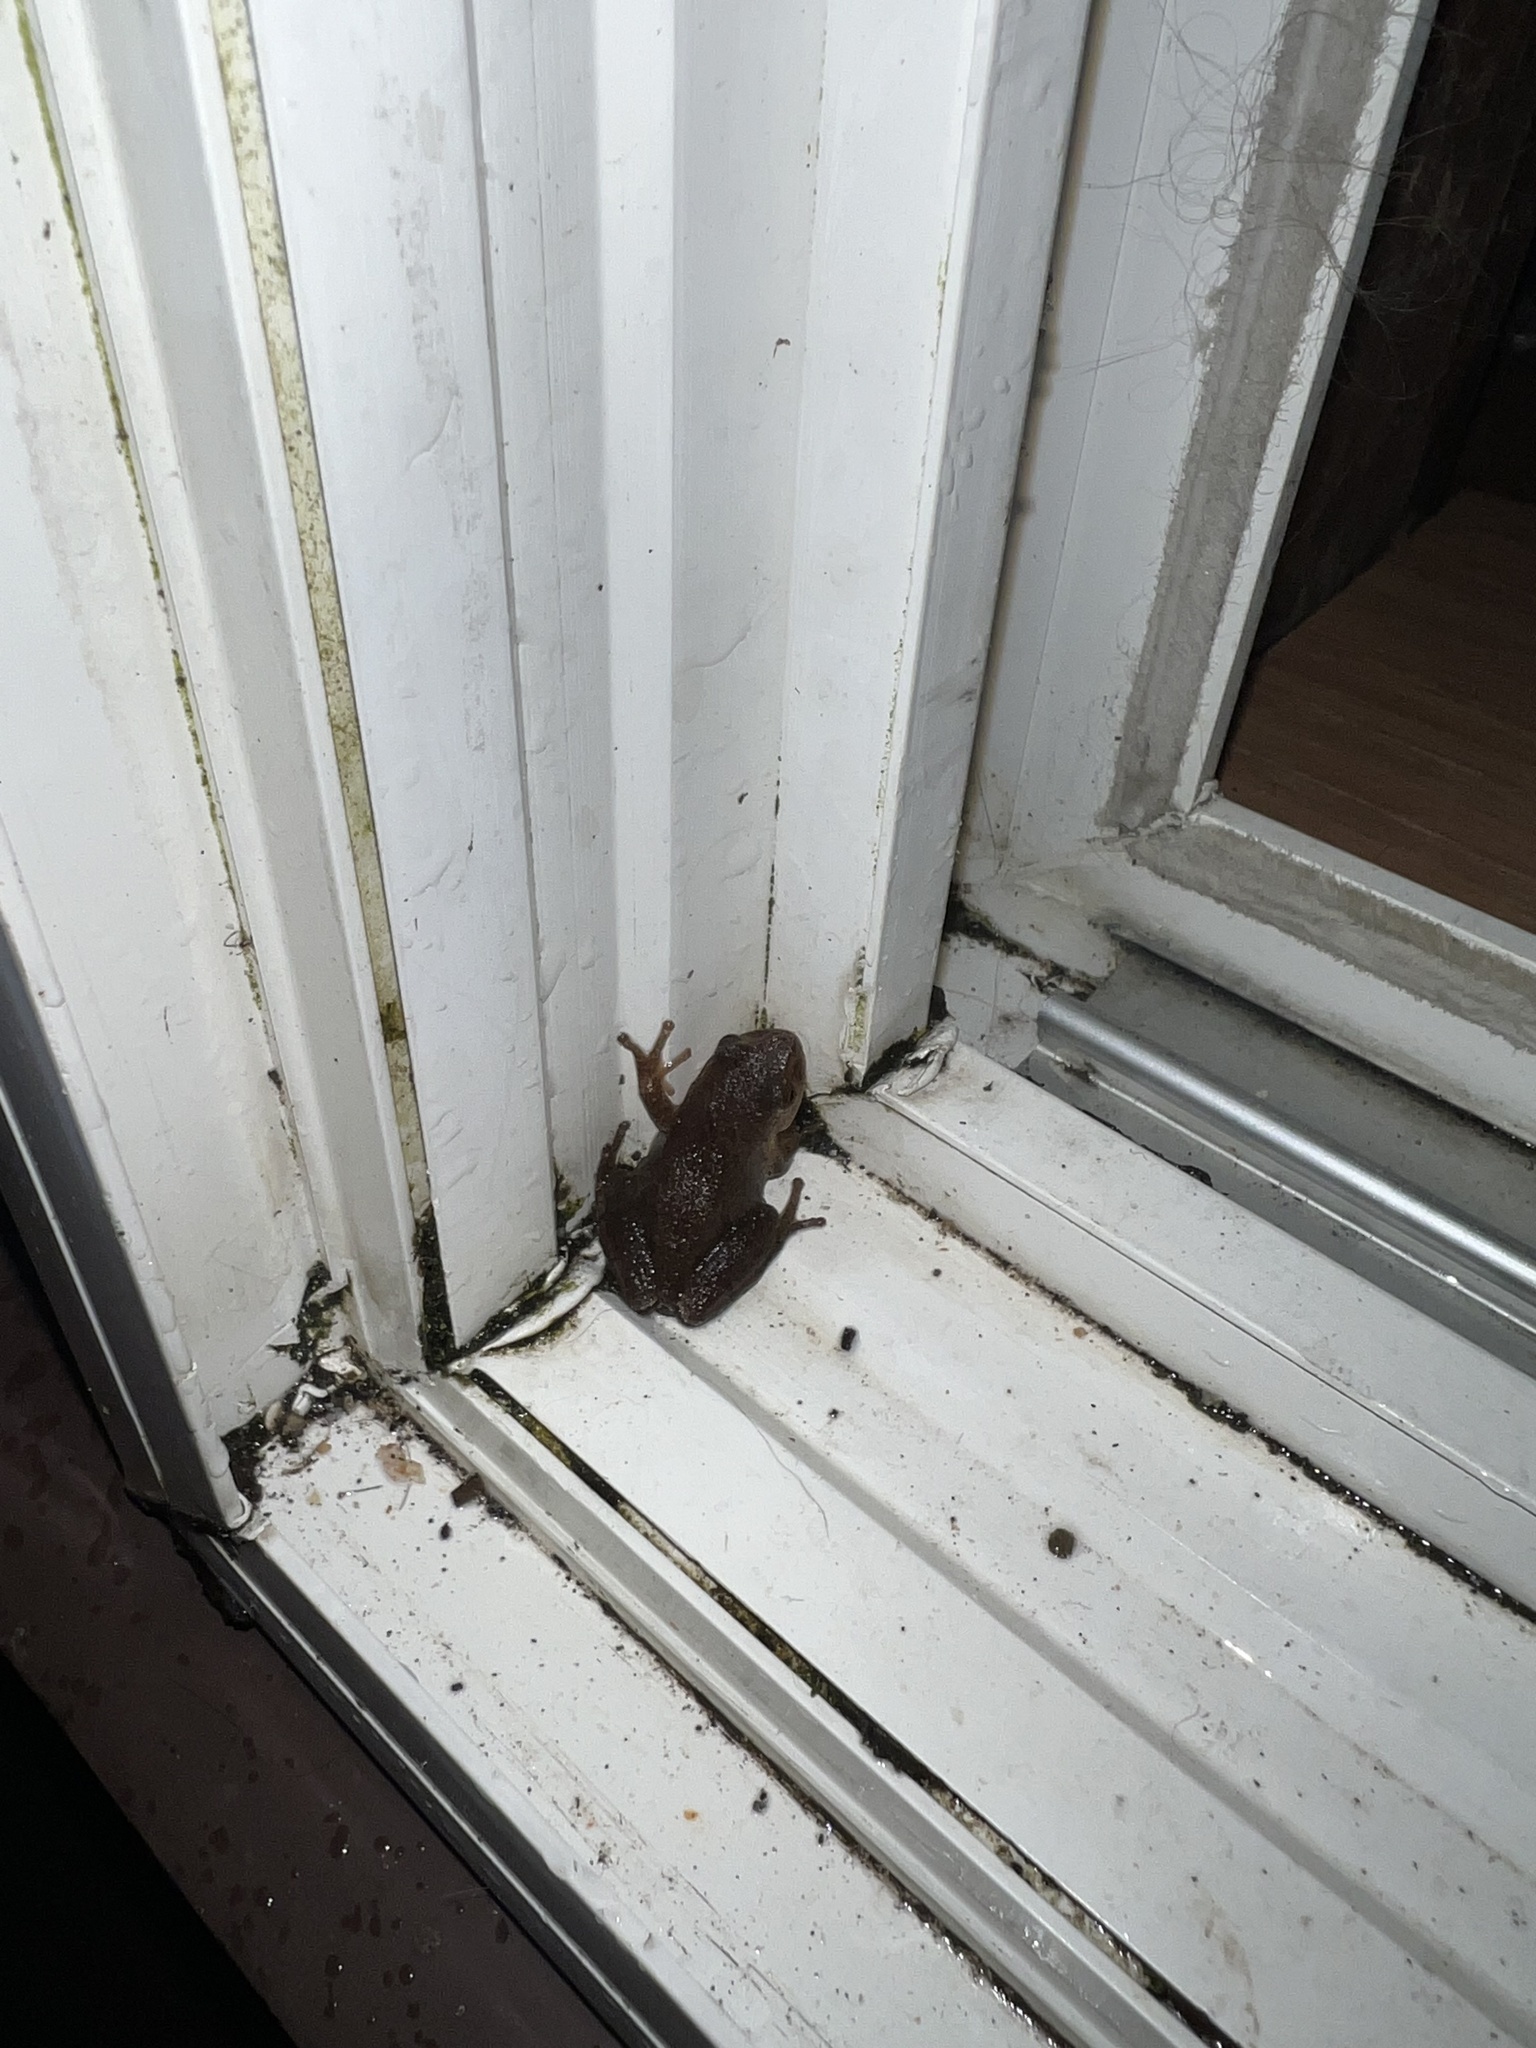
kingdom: Animalia
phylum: Chordata
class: Amphibia
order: Anura
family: Hylidae
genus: Pseudacris
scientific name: Pseudacris crucifer
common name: Spring peeper
